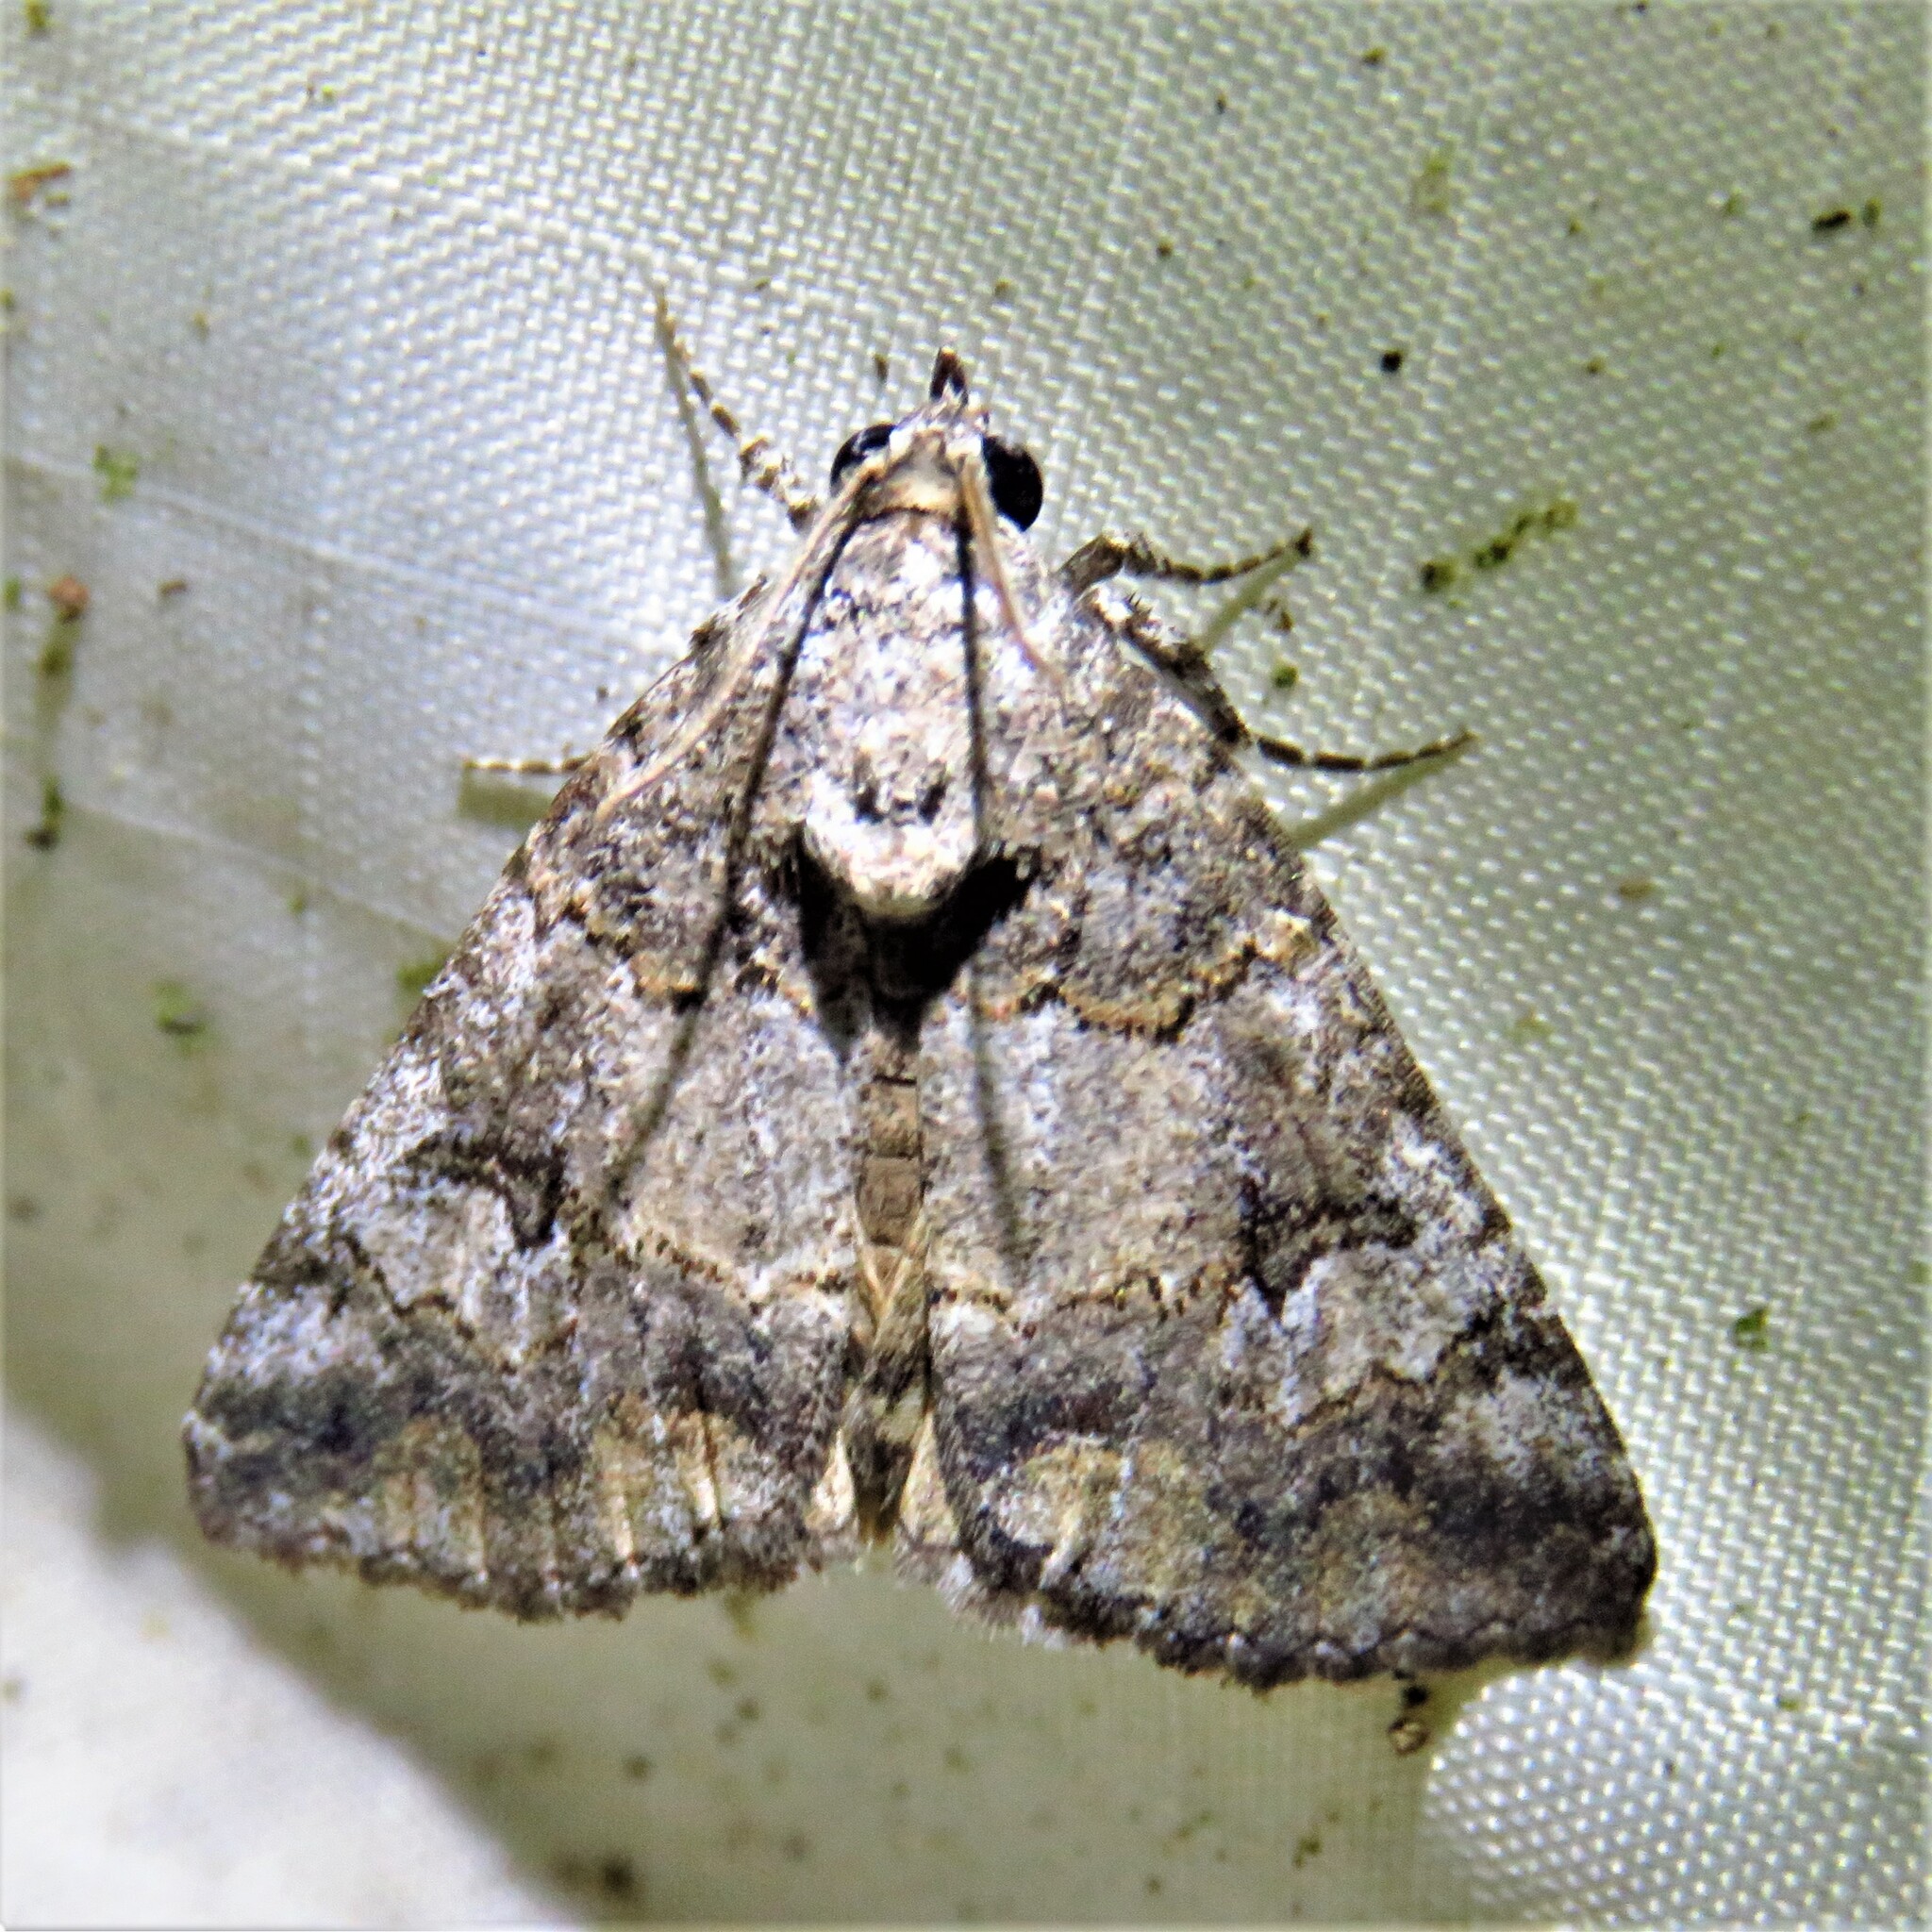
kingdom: Animalia
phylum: Arthropoda
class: Insecta
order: Lepidoptera
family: Erebidae
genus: Eubolina
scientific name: Eubolina impartialis
